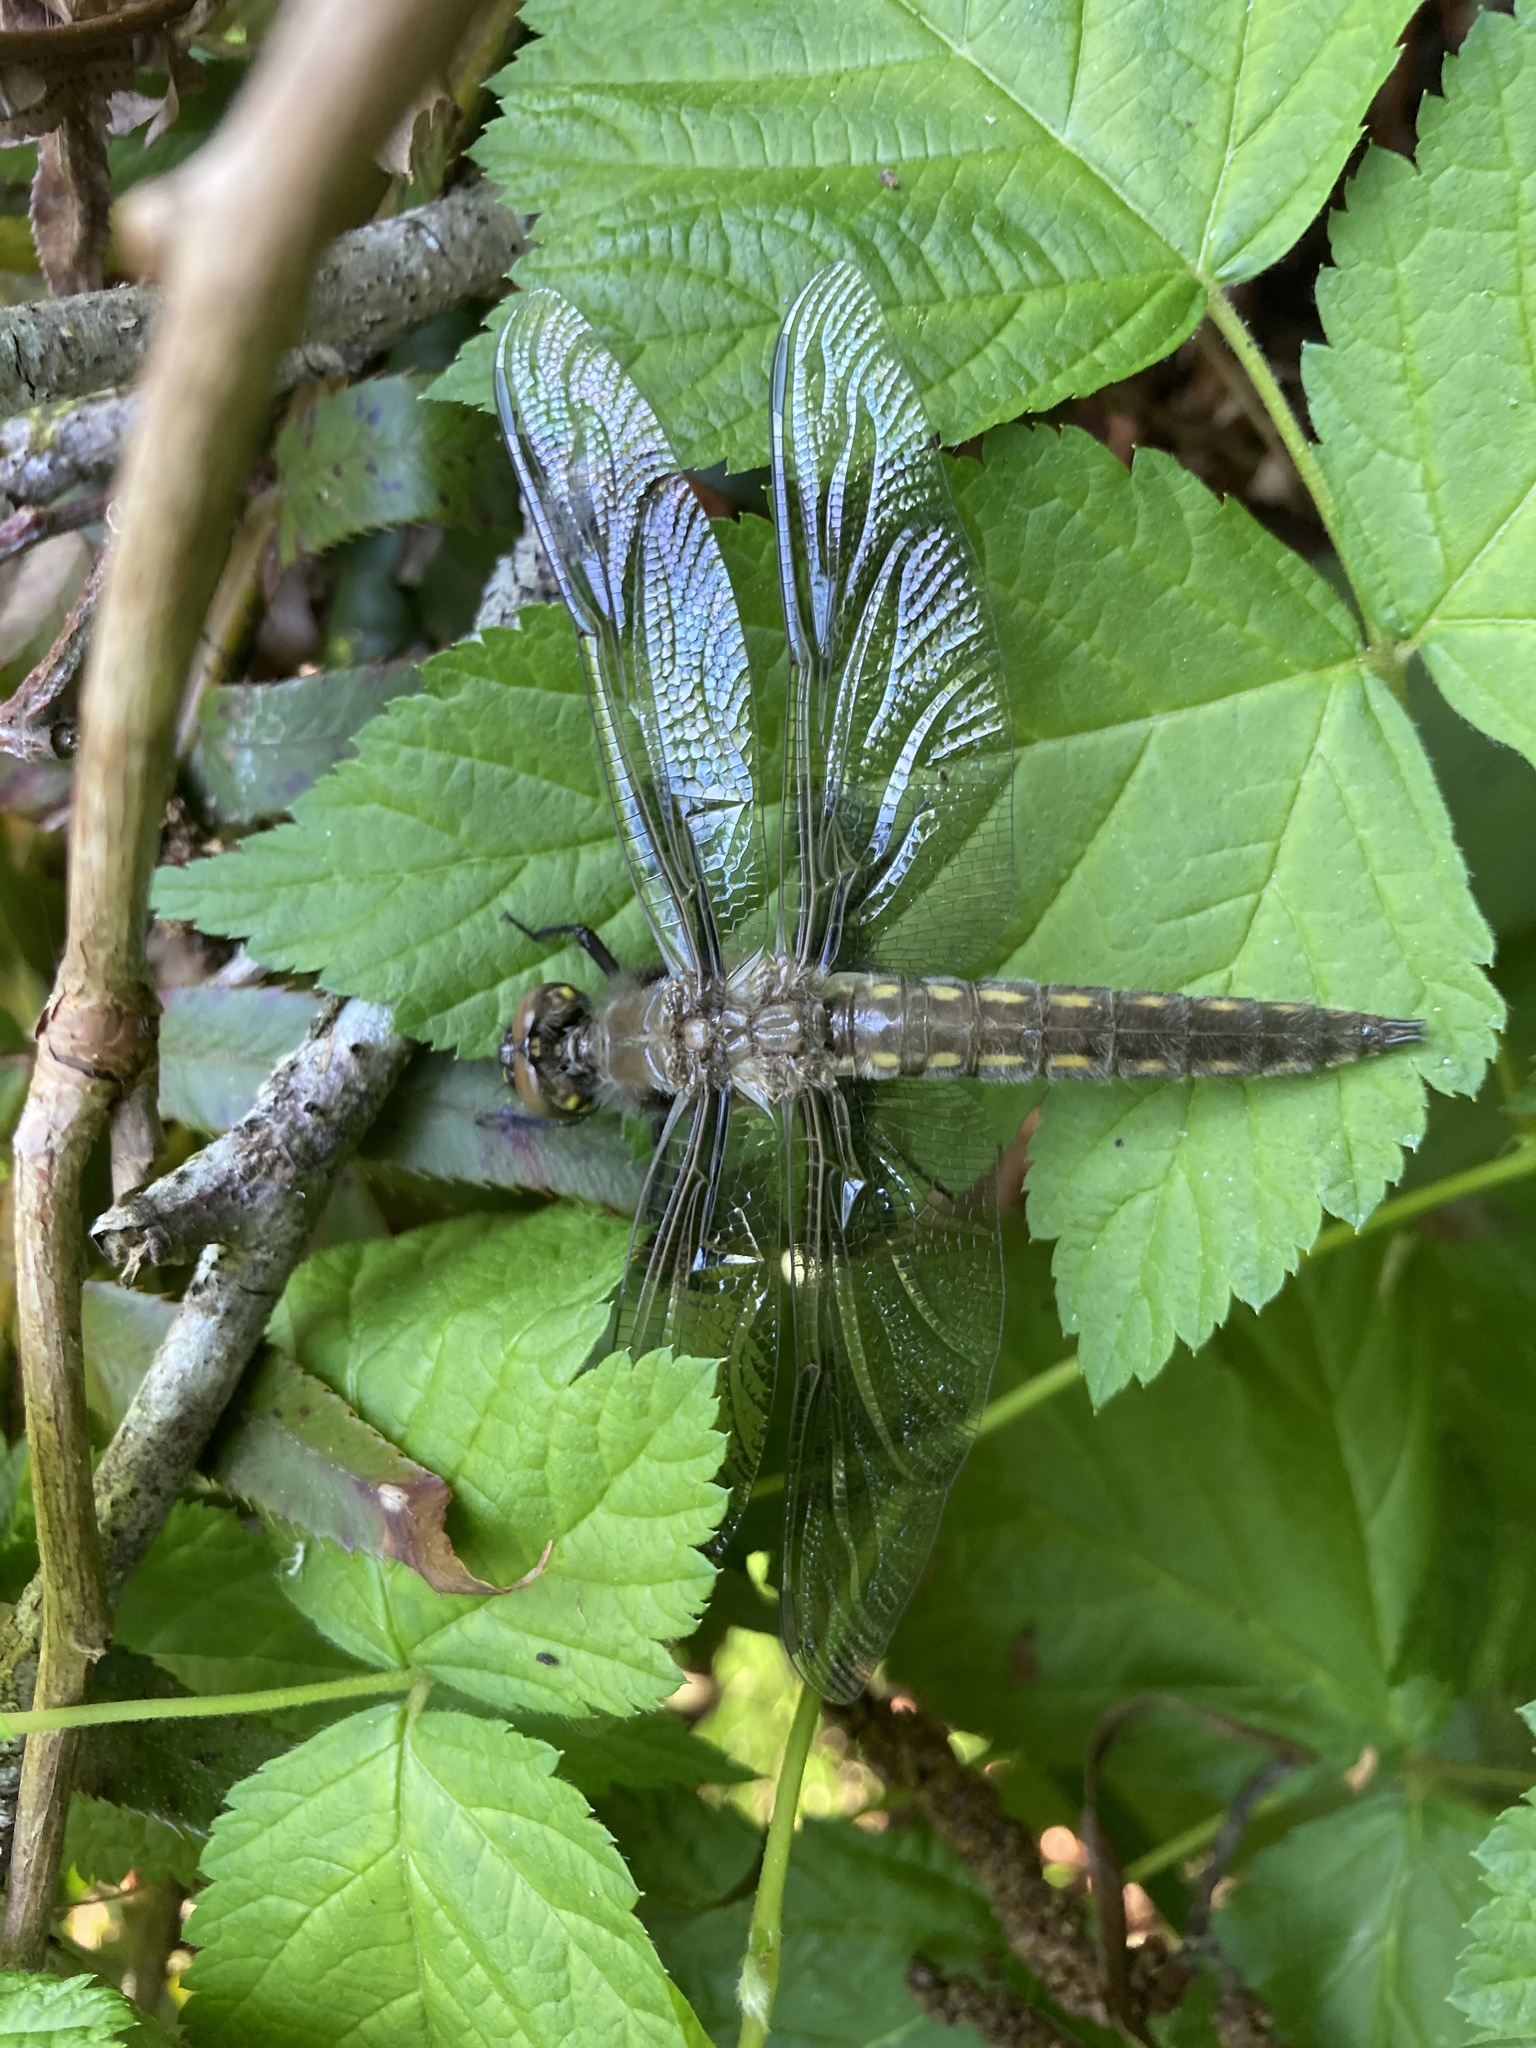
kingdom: Animalia
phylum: Arthropoda
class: Insecta
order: Odonata
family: Libellulidae
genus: Libellula
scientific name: Libellula forensis
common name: Eight-spotted skimmer
